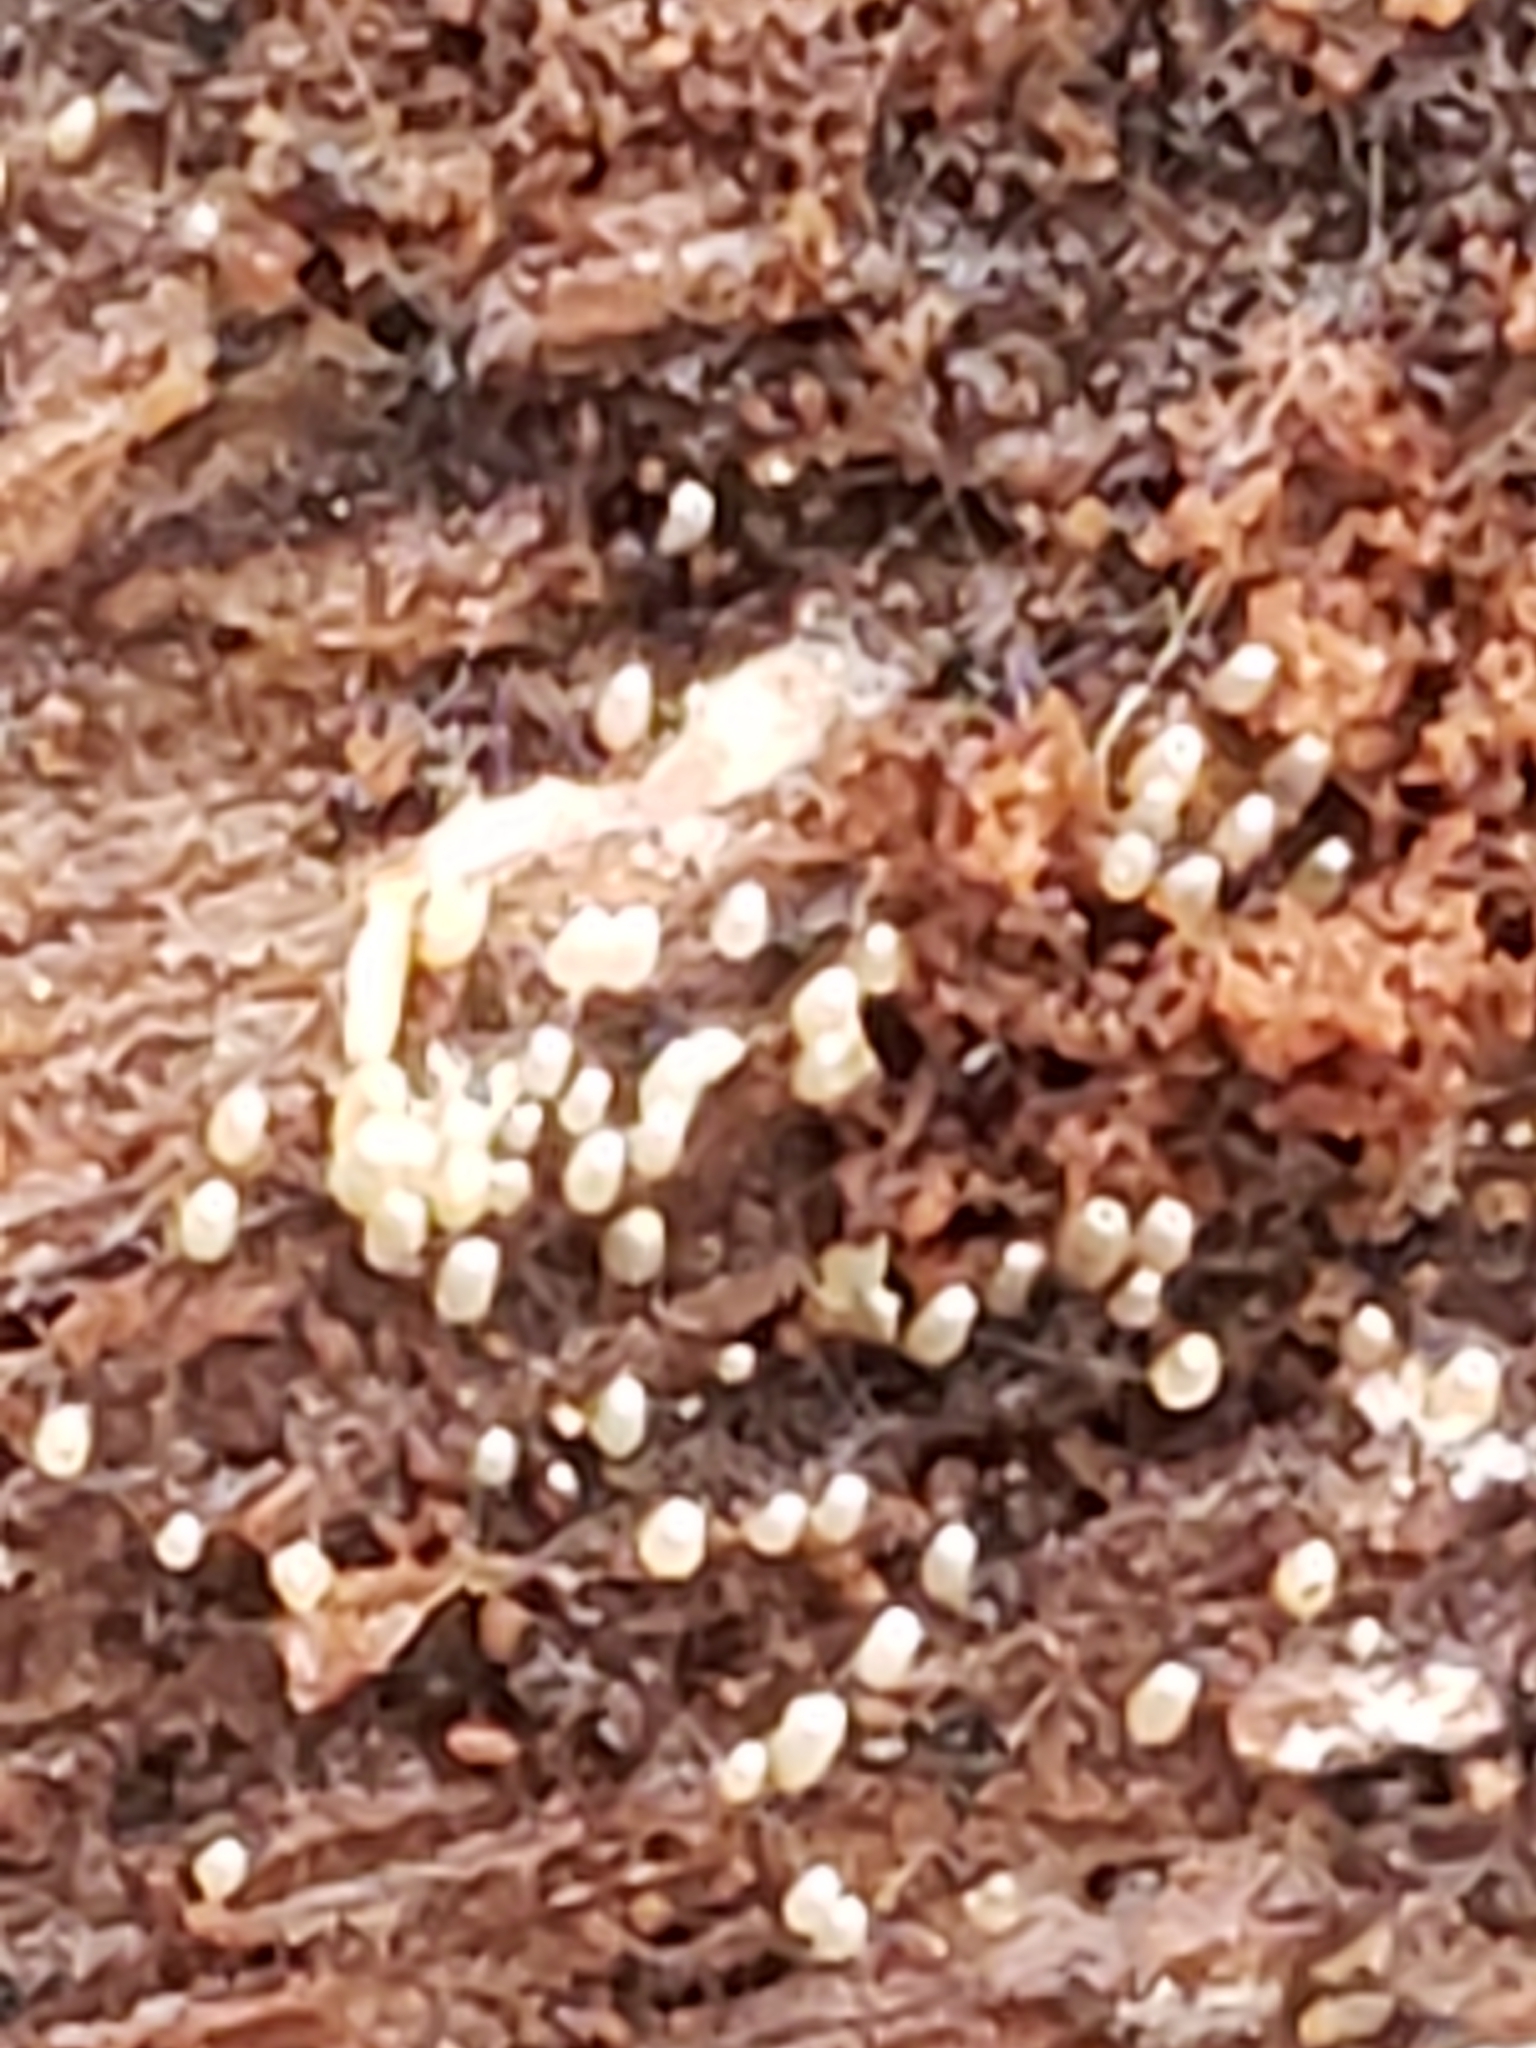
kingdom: Fungi
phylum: Basidiomycota
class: Agaricomycetes
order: Agaricales
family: Marasmiaceae
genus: Henningsomyces
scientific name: Henningsomyces candidus
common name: White tubelet
